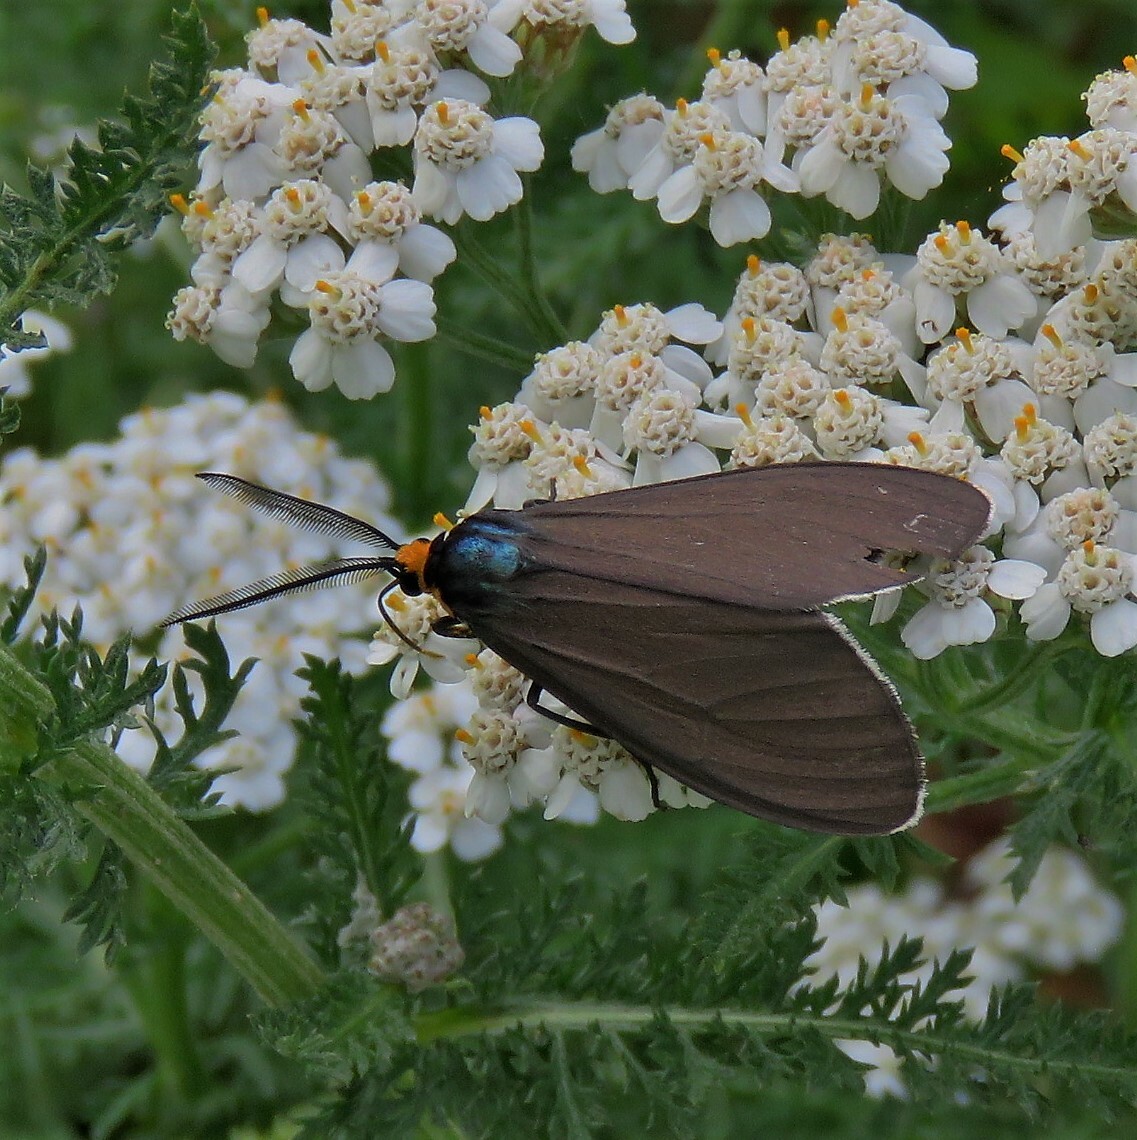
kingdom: Animalia
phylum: Arthropoda
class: Insecta
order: Lepidoptera
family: Erebidae
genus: Ctenucha
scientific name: Ctenucha virginica
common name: Virginia ctenucha moth
